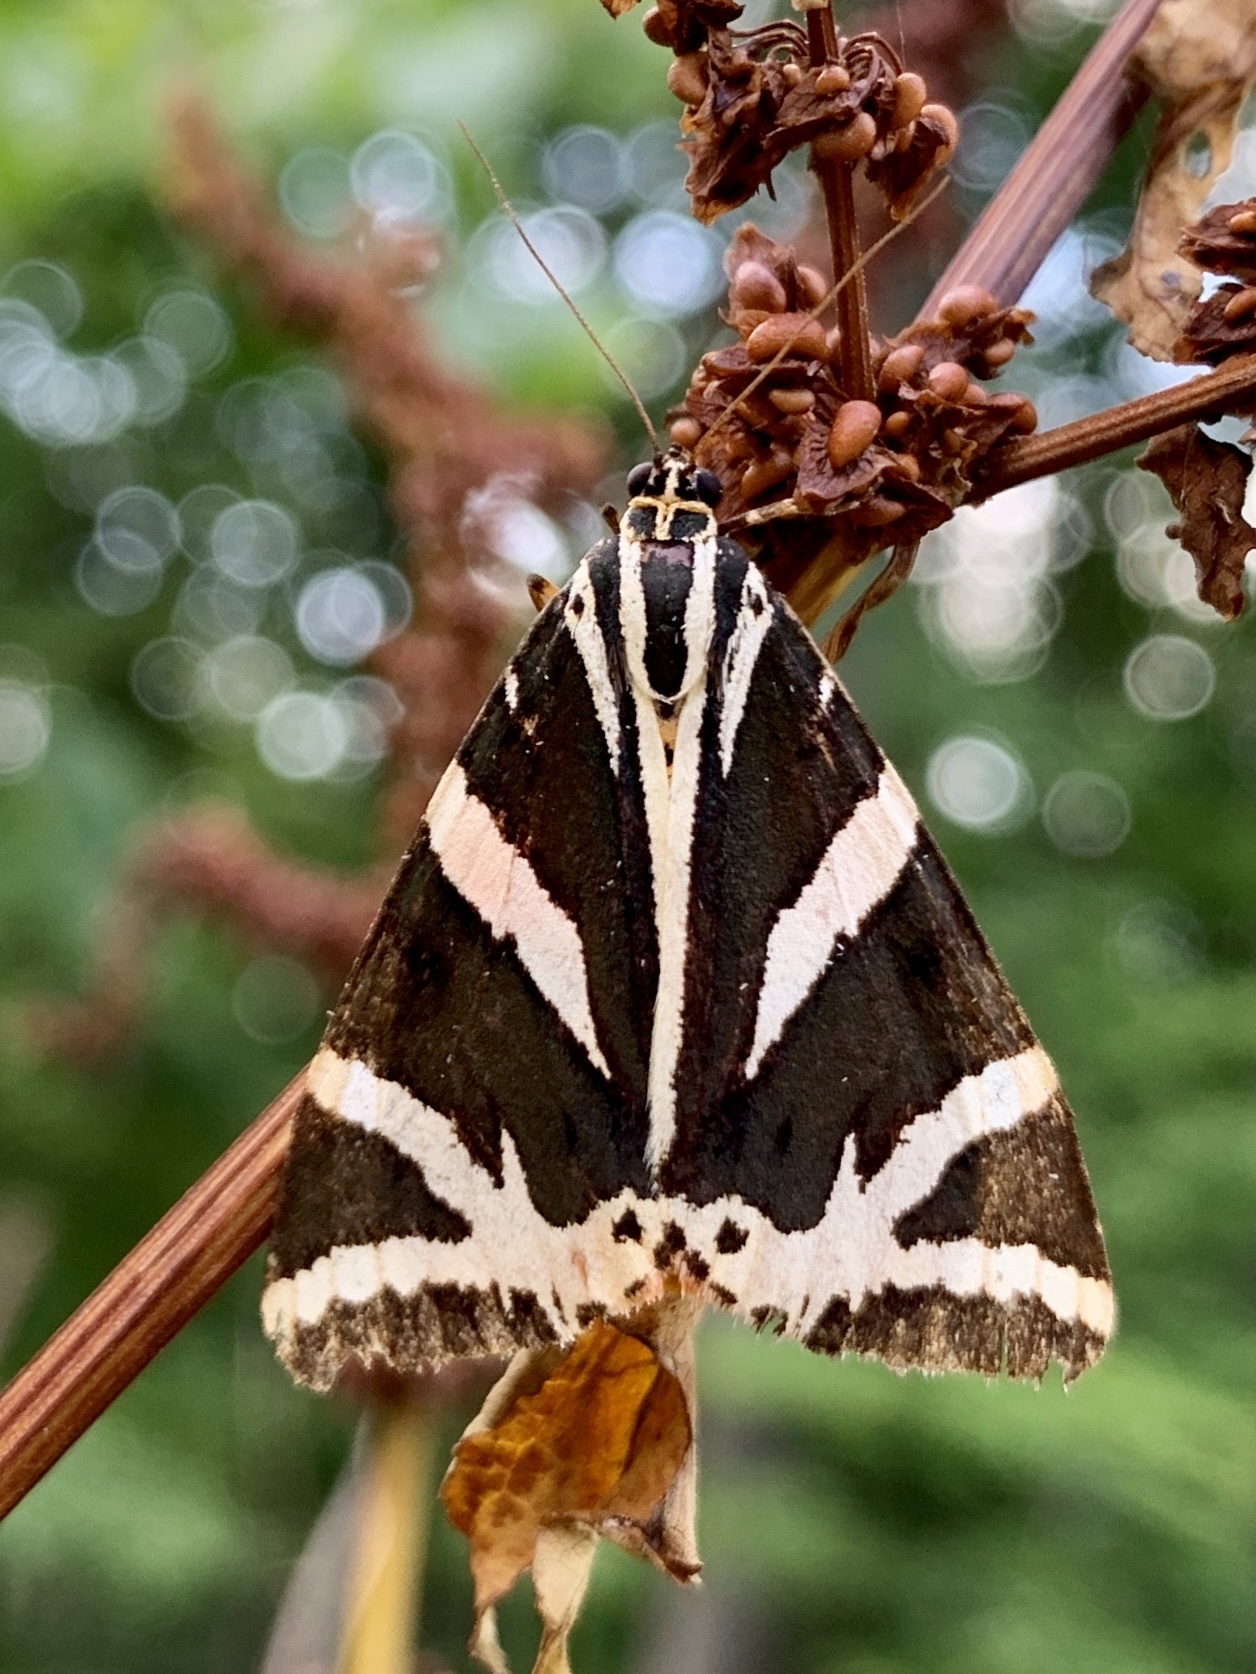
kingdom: Animalia
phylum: Arthropoda
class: Insecta
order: Lepidoptera
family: Erebidae
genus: Euplagia
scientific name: Euplagia quadripunctaria
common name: Jersey tiger
